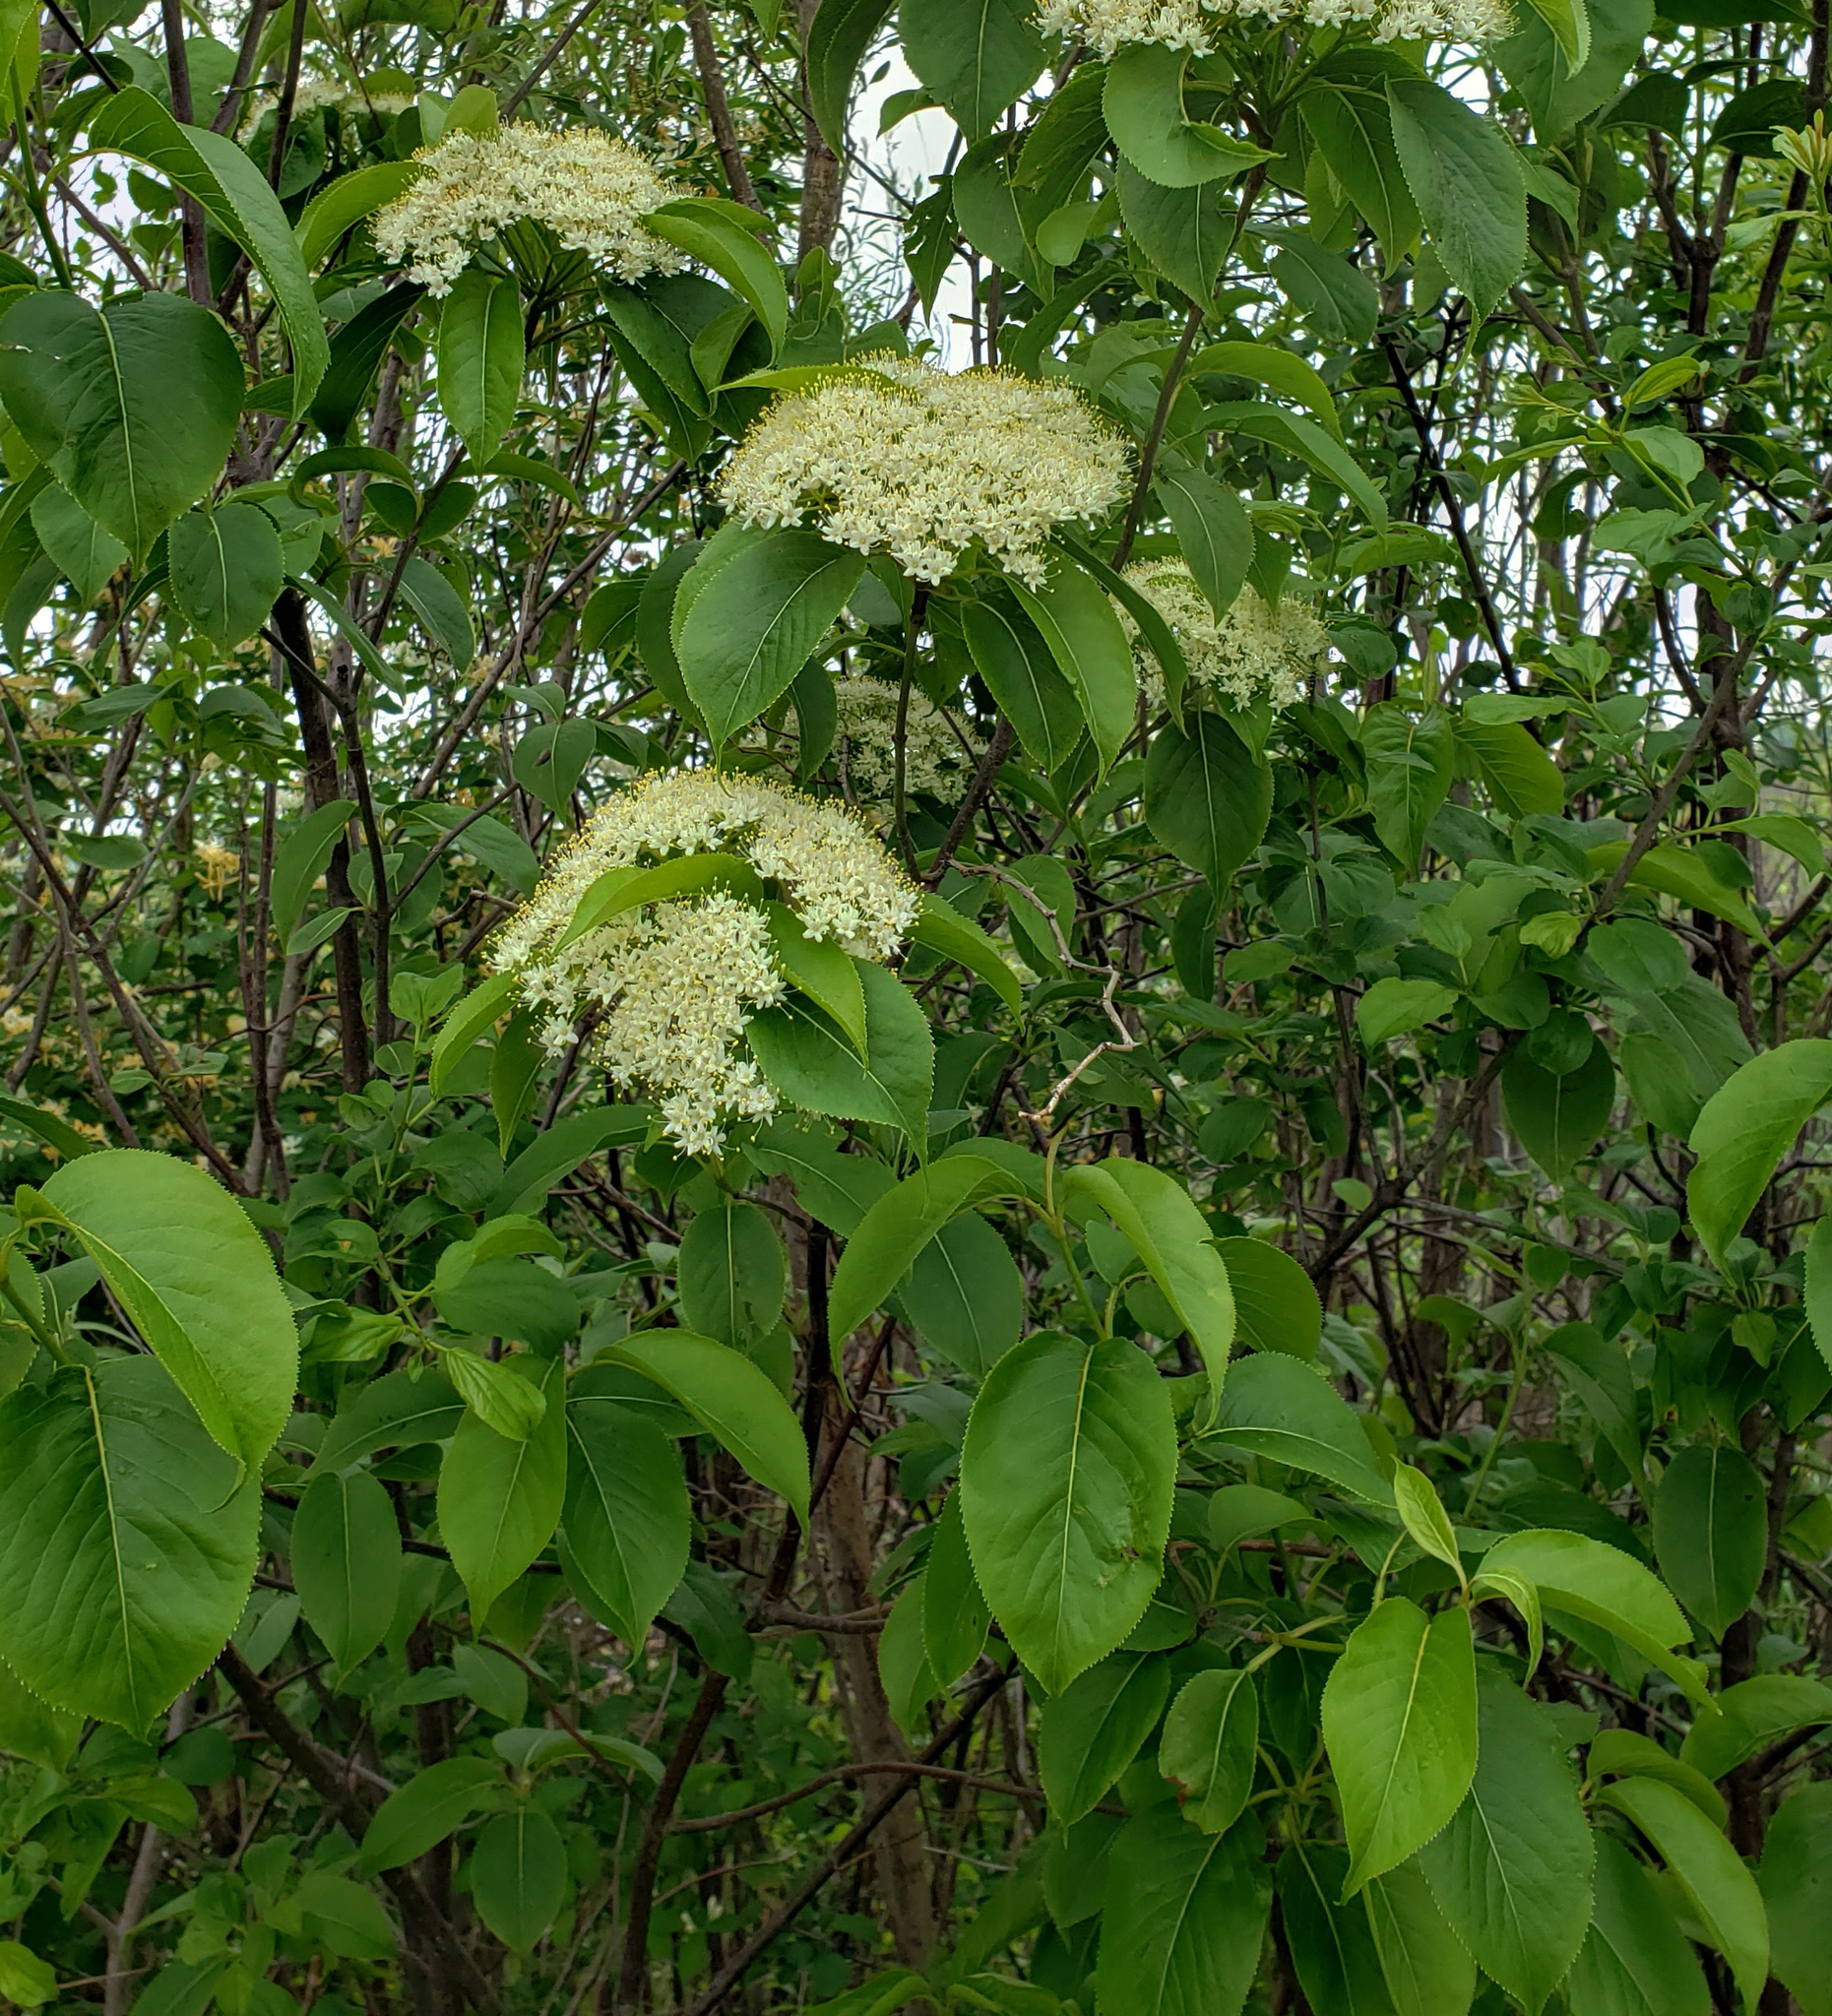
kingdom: Plantae
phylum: Tracheophyta
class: Magnoliopsida
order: Dipsacales
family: Viburnaceae
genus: Viburnum
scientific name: Viburnum lentago
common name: Black haw
